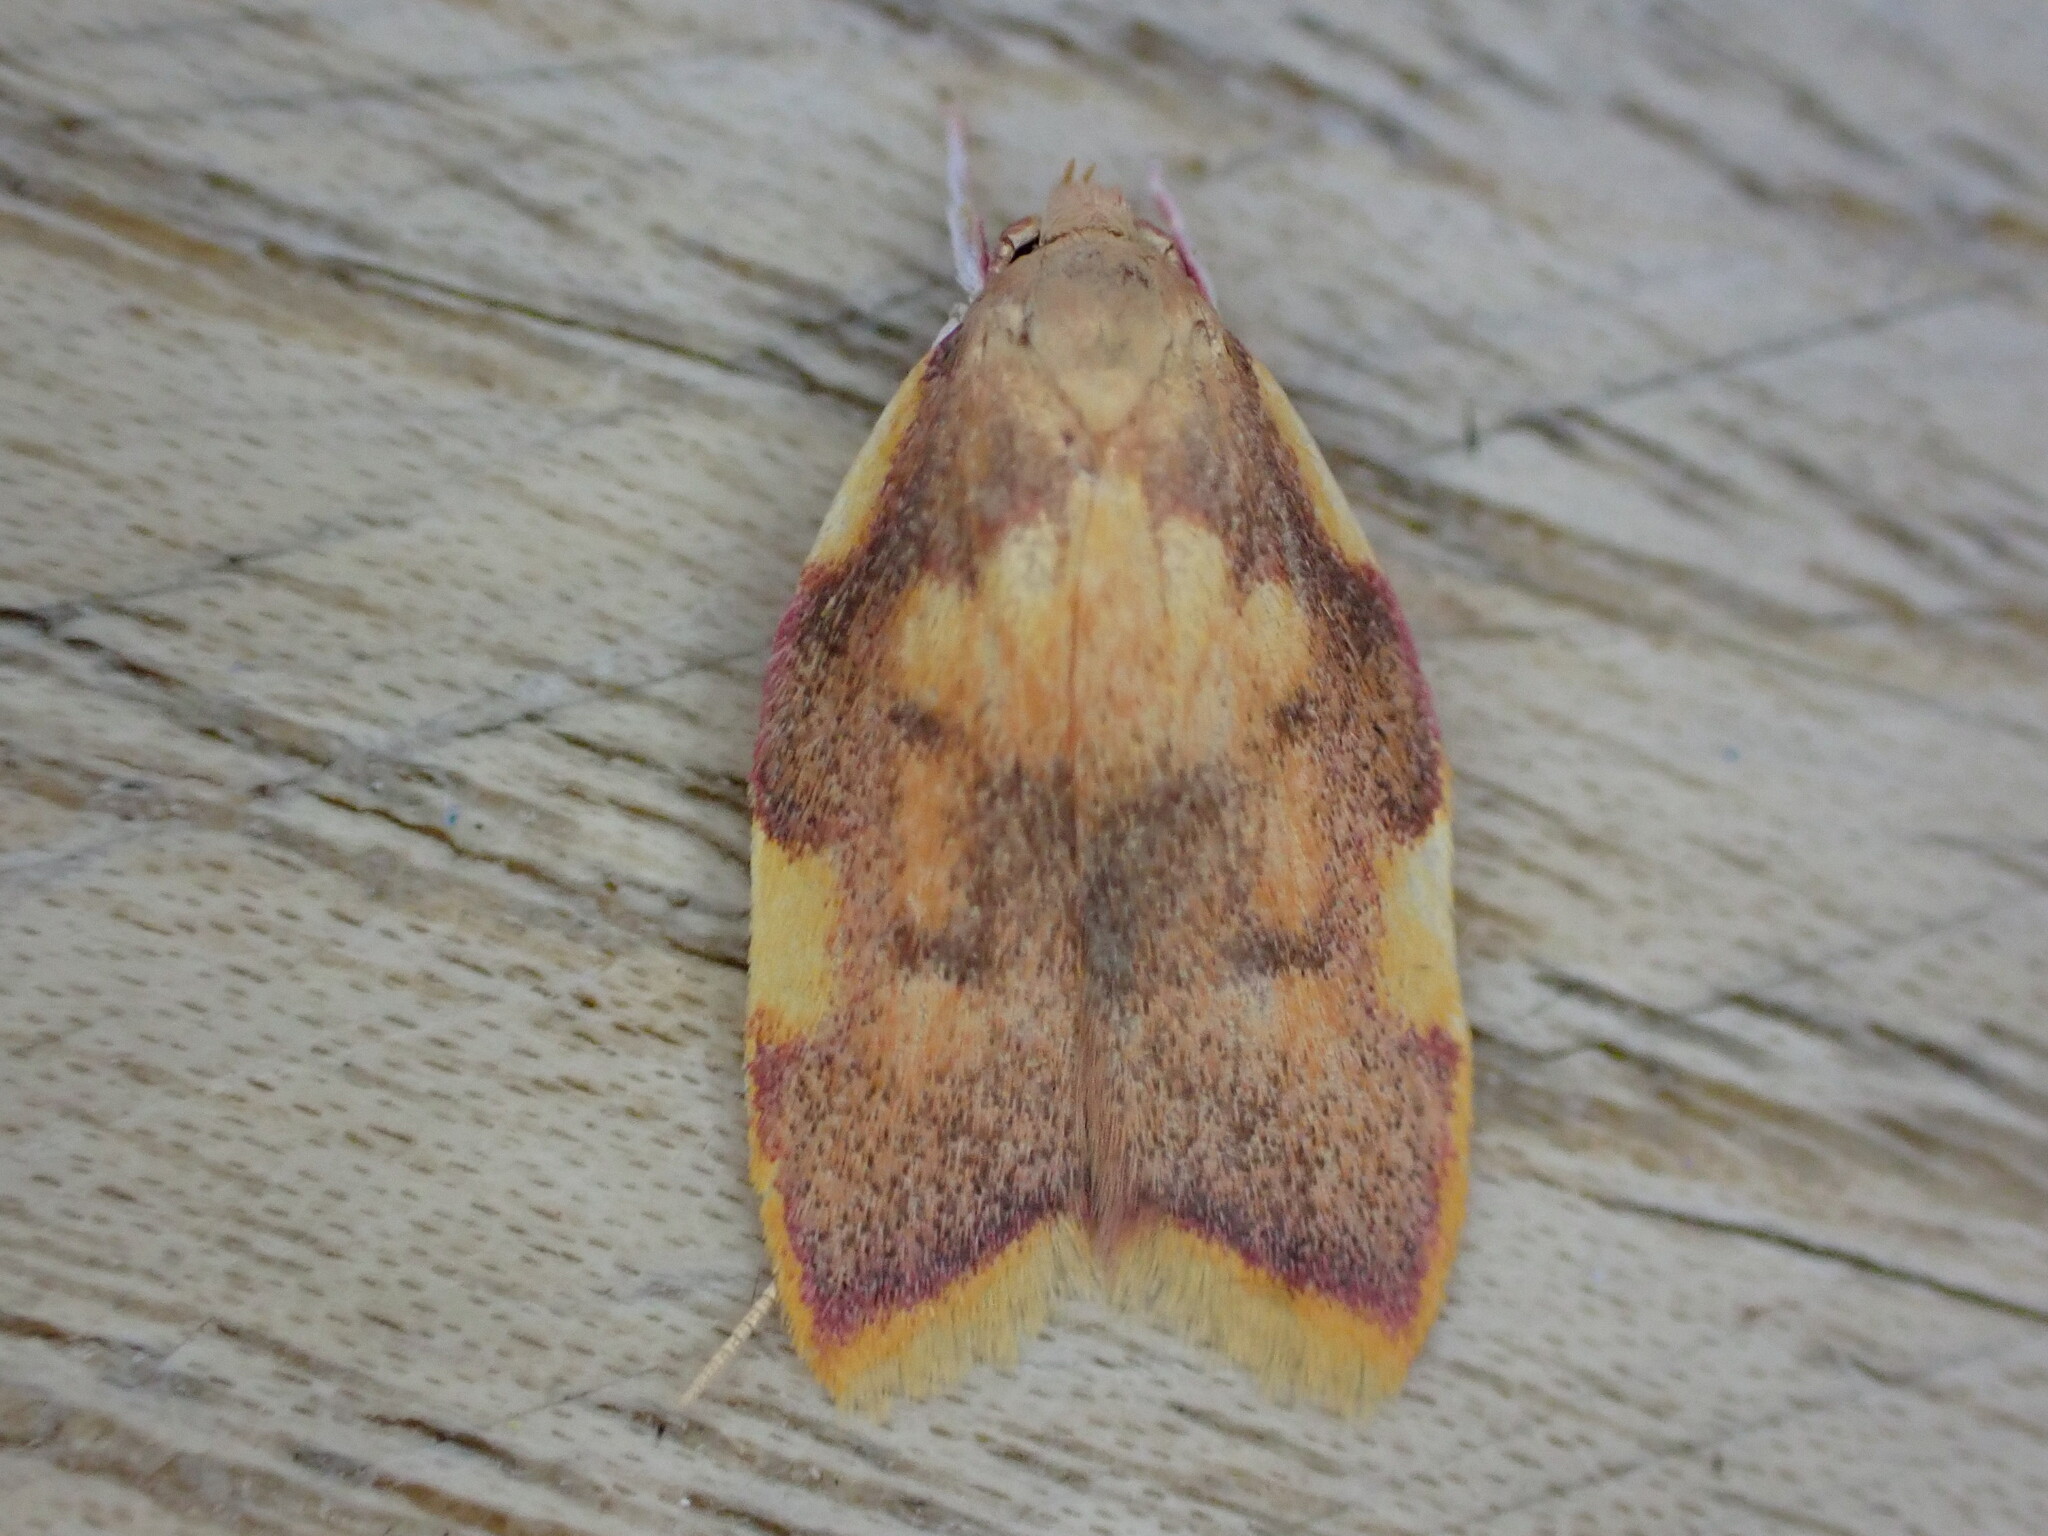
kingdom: Animalia
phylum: Arthropoda
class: Insecta
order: Lepidoptera
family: Peleopodidae
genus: Carcina
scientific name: Carcina quercana
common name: Moth
